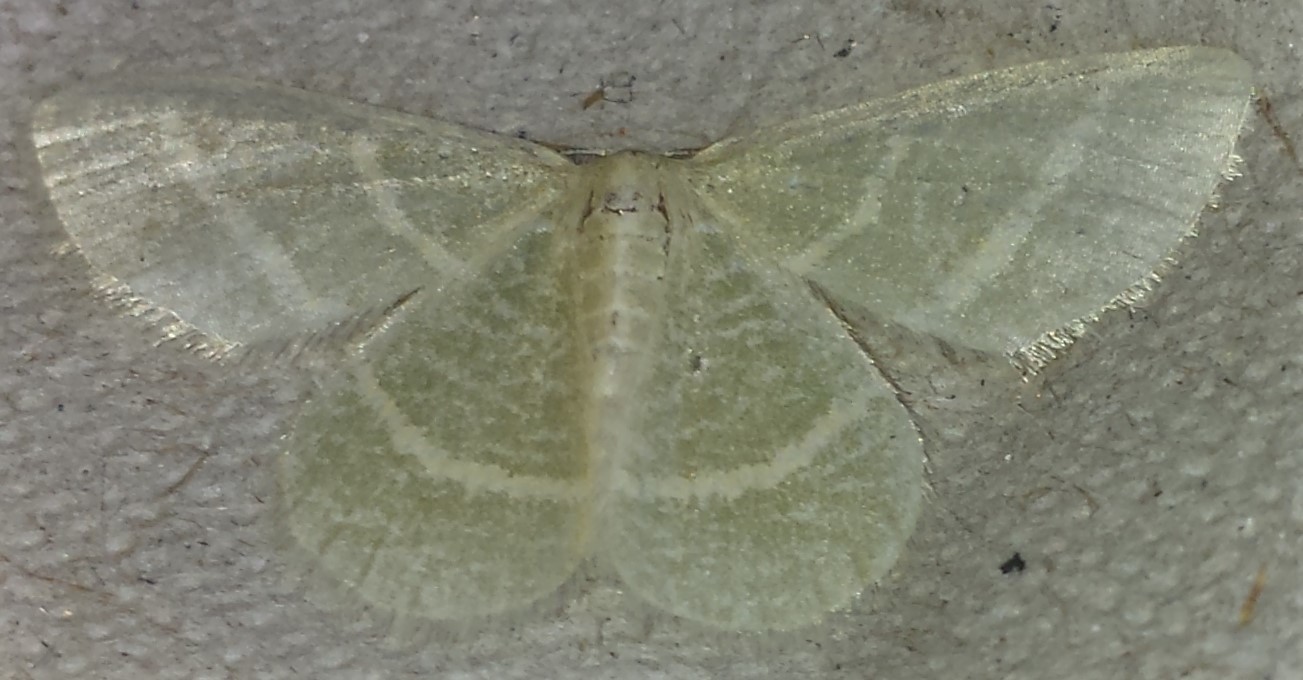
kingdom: Animalia
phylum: Arthropoda
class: Insecta
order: Lepidoptera
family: Geometridae
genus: Chlorochlamys
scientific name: Chlorochlamys chloroleucaria
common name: Blackberry looper
